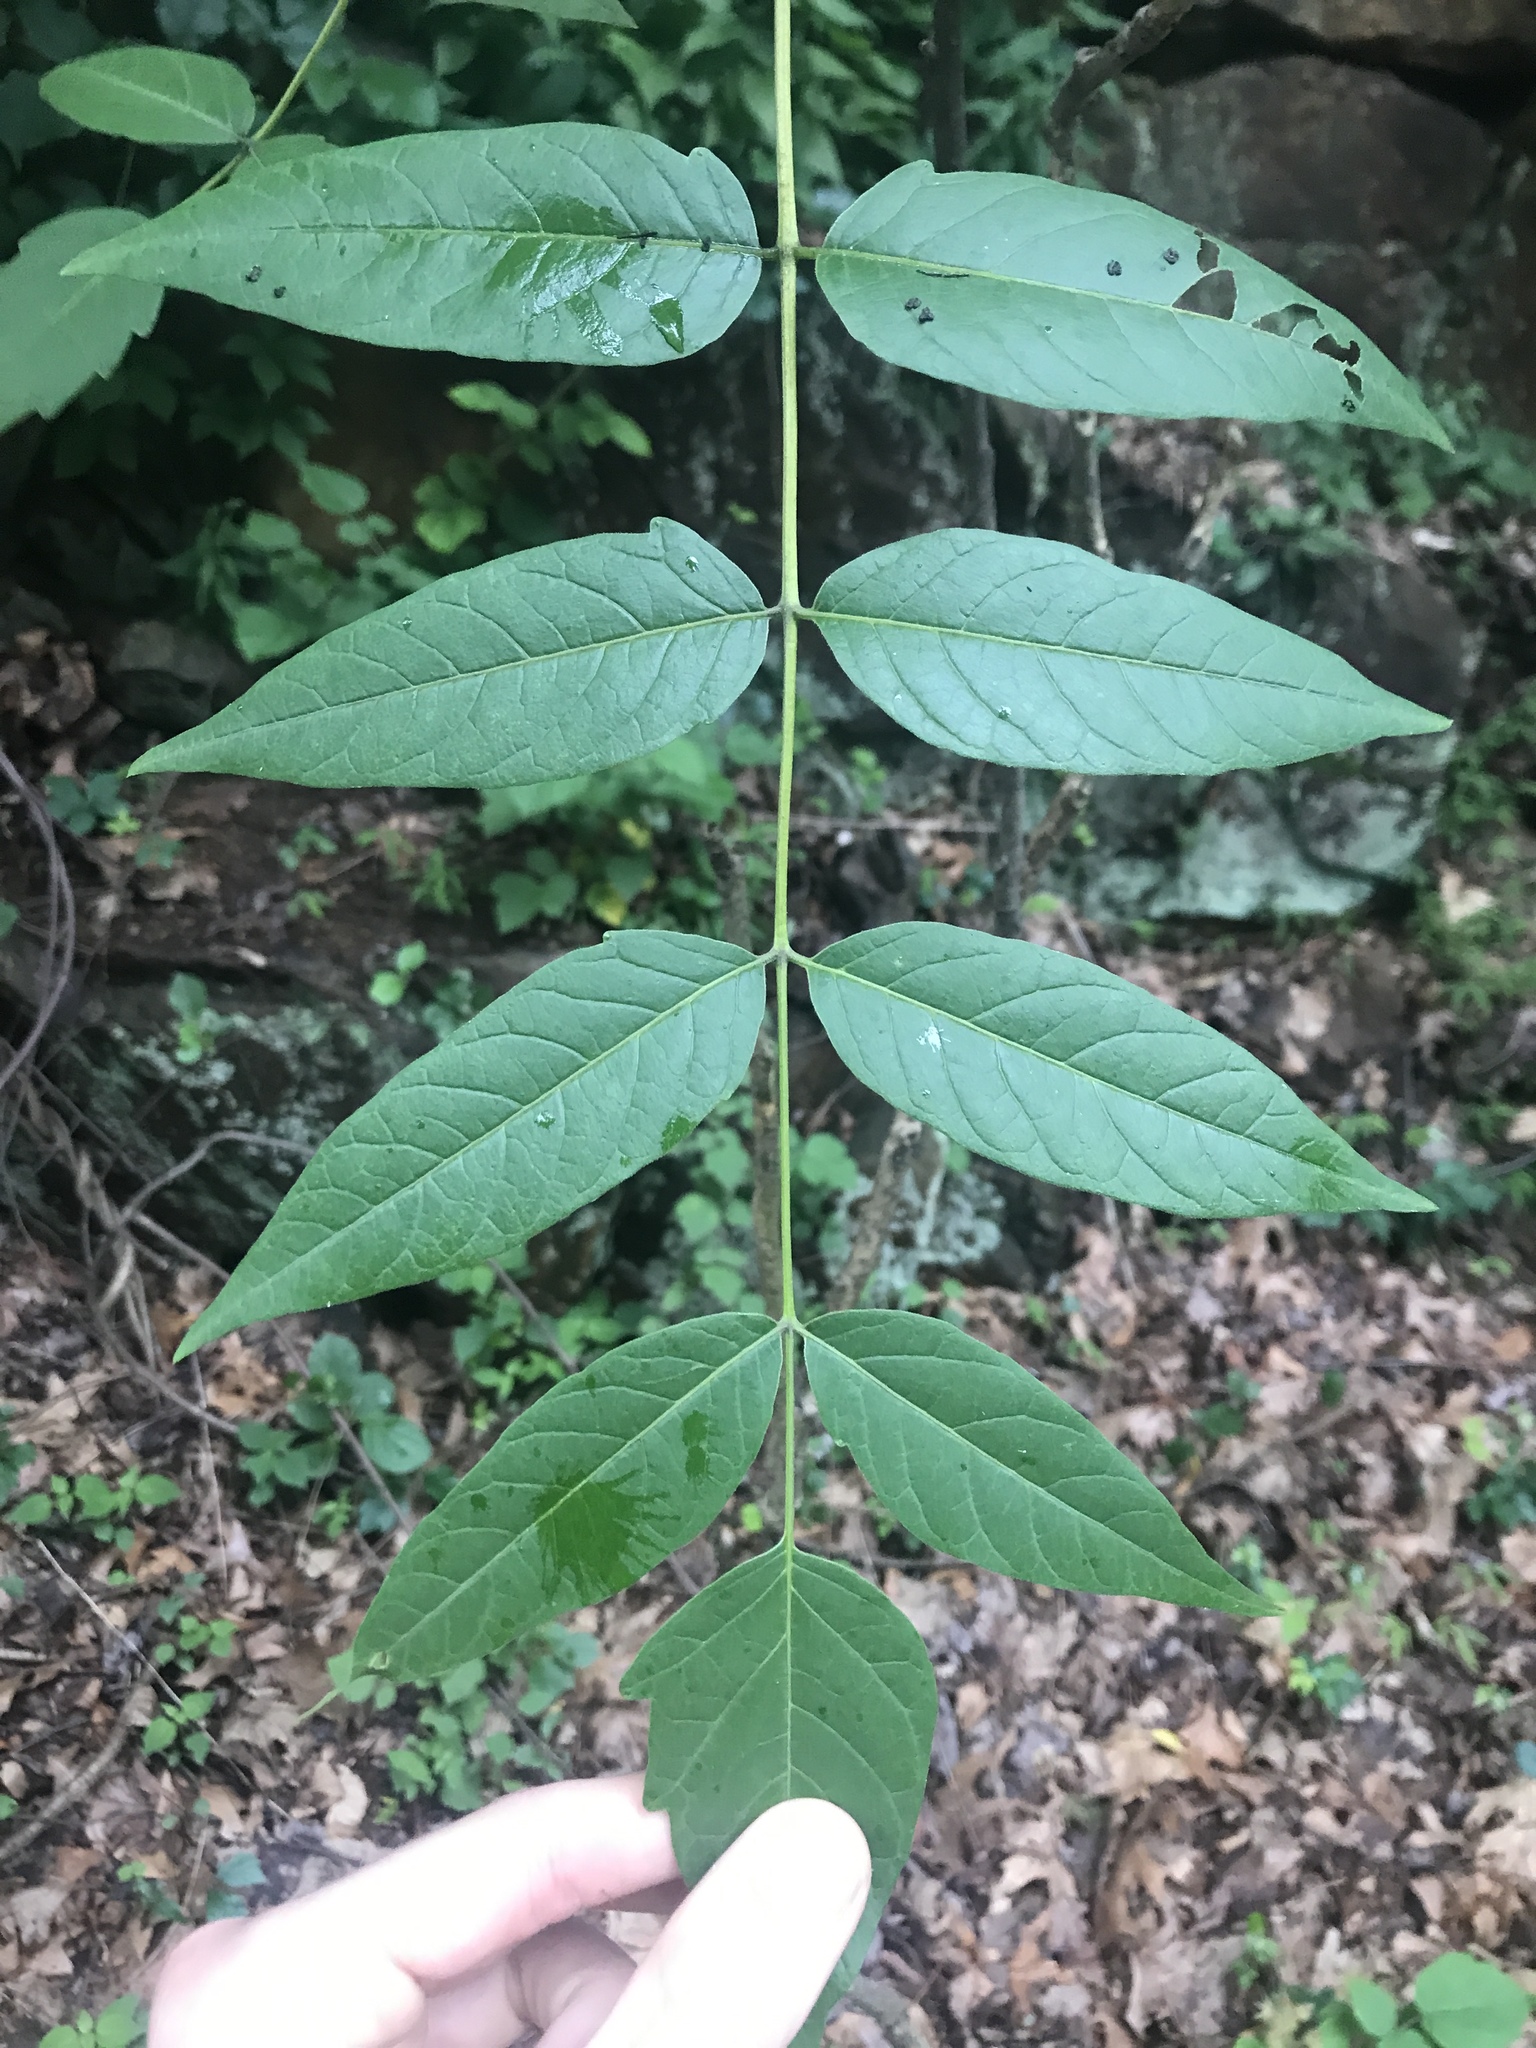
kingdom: Plantae
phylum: Tracheophyta
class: Magnoliopsida
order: Sapindales
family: Simaroubaceae
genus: Ailanthus
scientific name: Ailanthus altissima
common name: Tree-of-heaven
